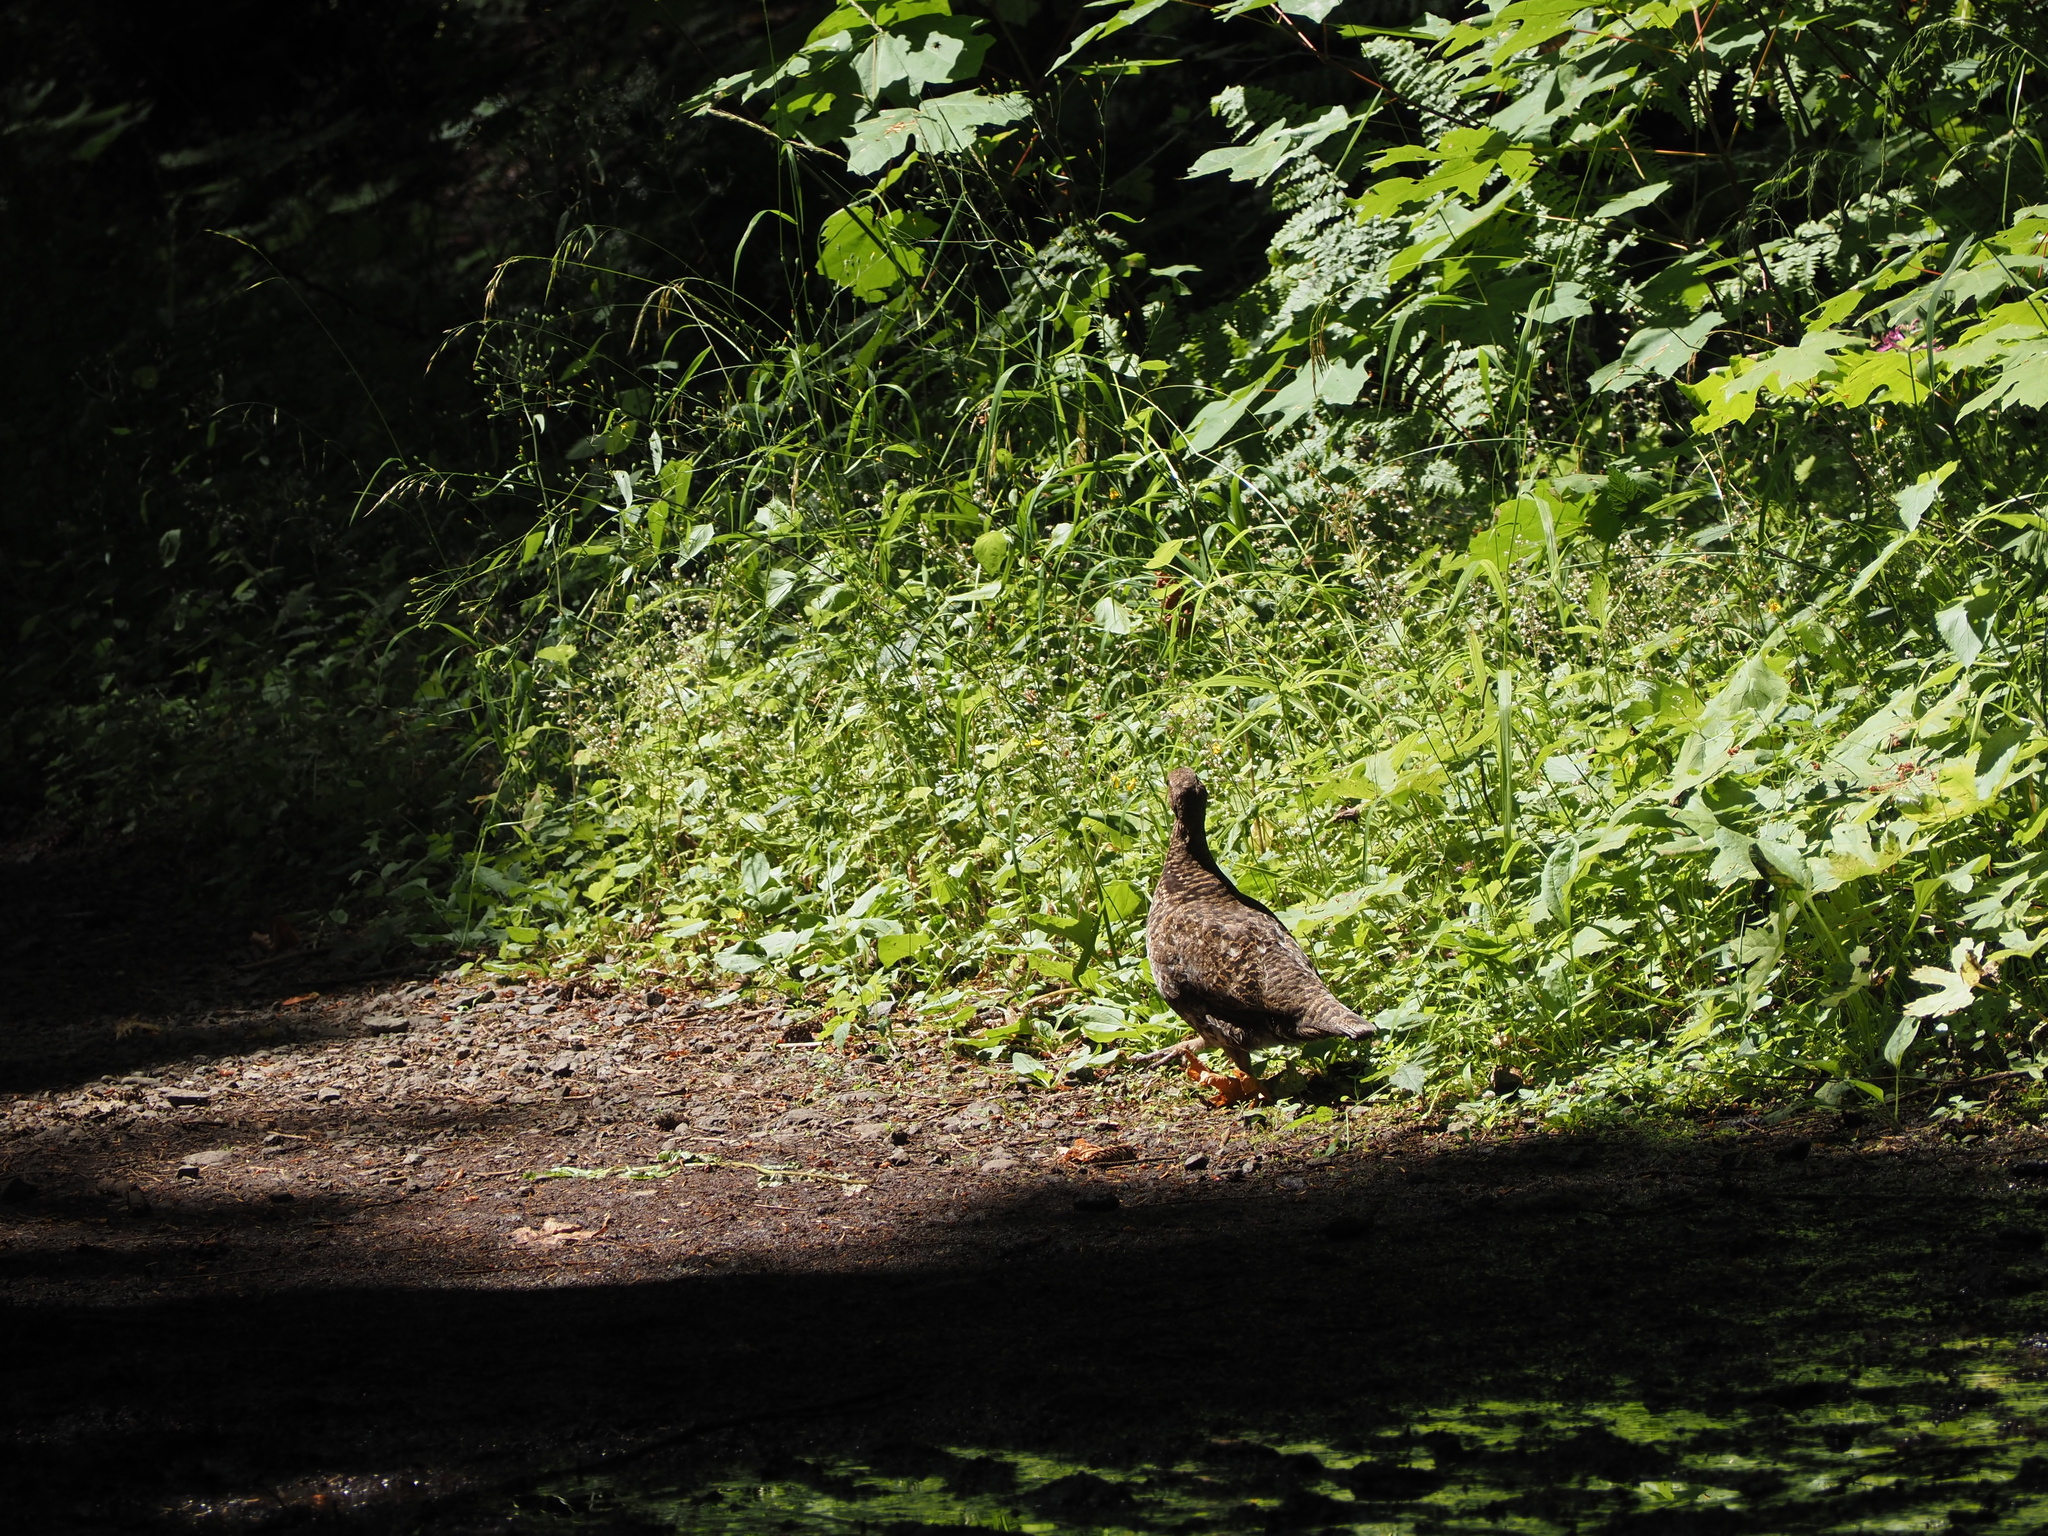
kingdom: Animalia
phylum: Chordata
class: Aves
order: Galliformes
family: Phasianidae
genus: Dendragapus
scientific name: Dendragapus fuliginosus
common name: Sooty grouse
